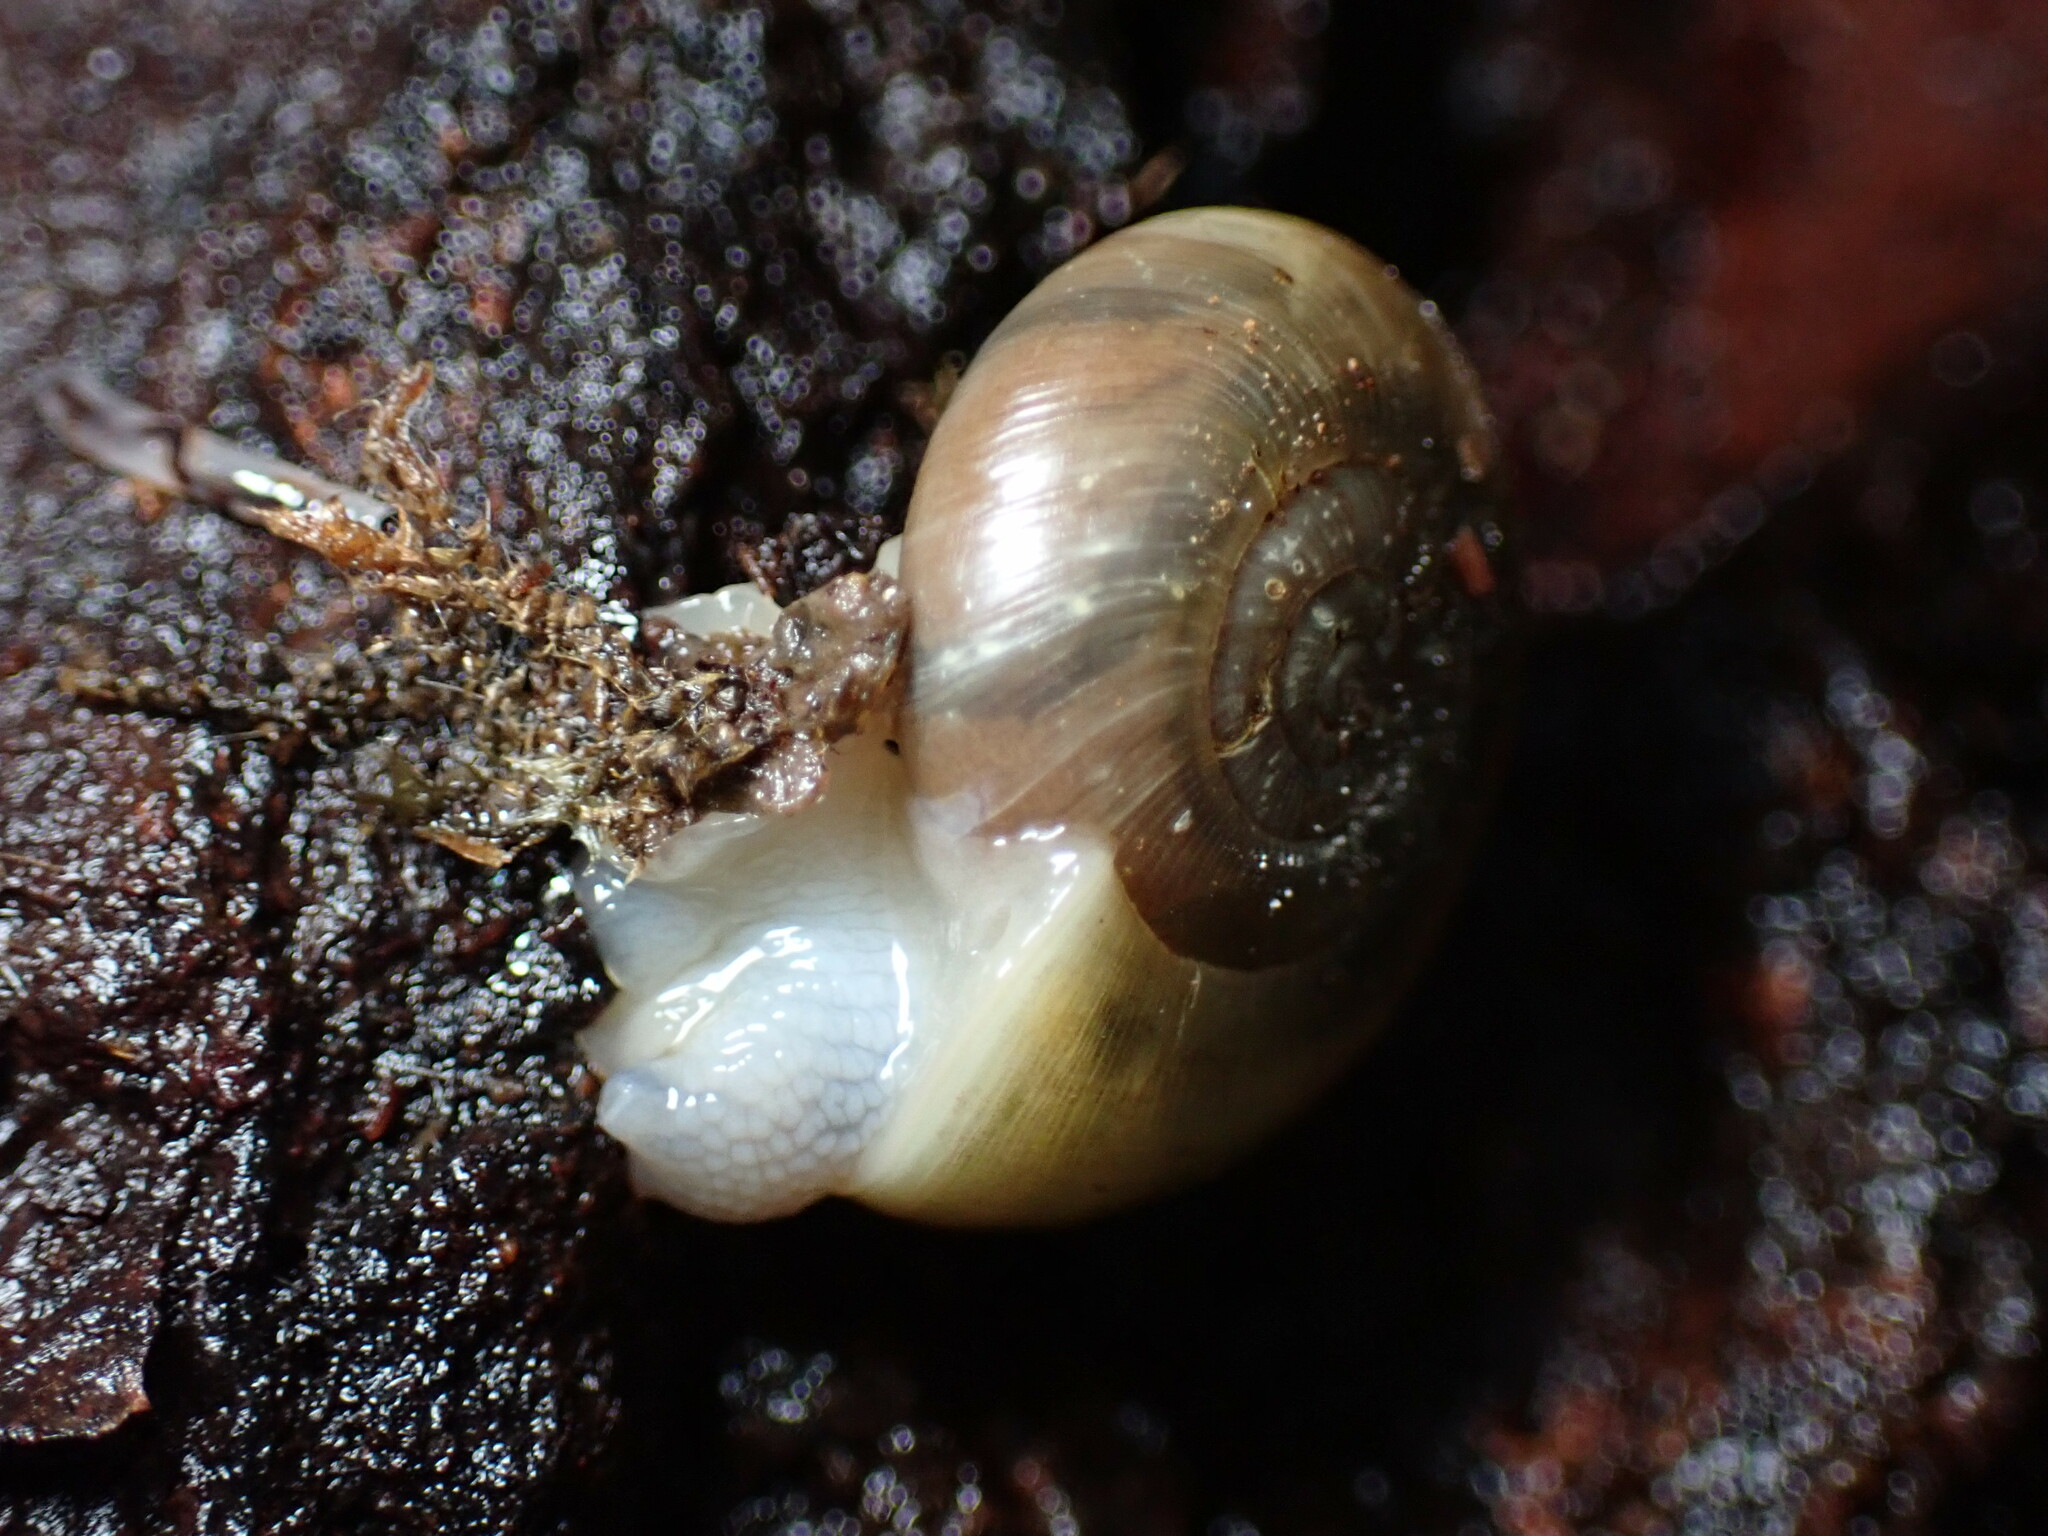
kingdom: Animalia
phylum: Mollusca
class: Gastropoda
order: Stylommatophora
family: Haplotrematidae
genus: Ancotrema
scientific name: Ancotrema sportella
